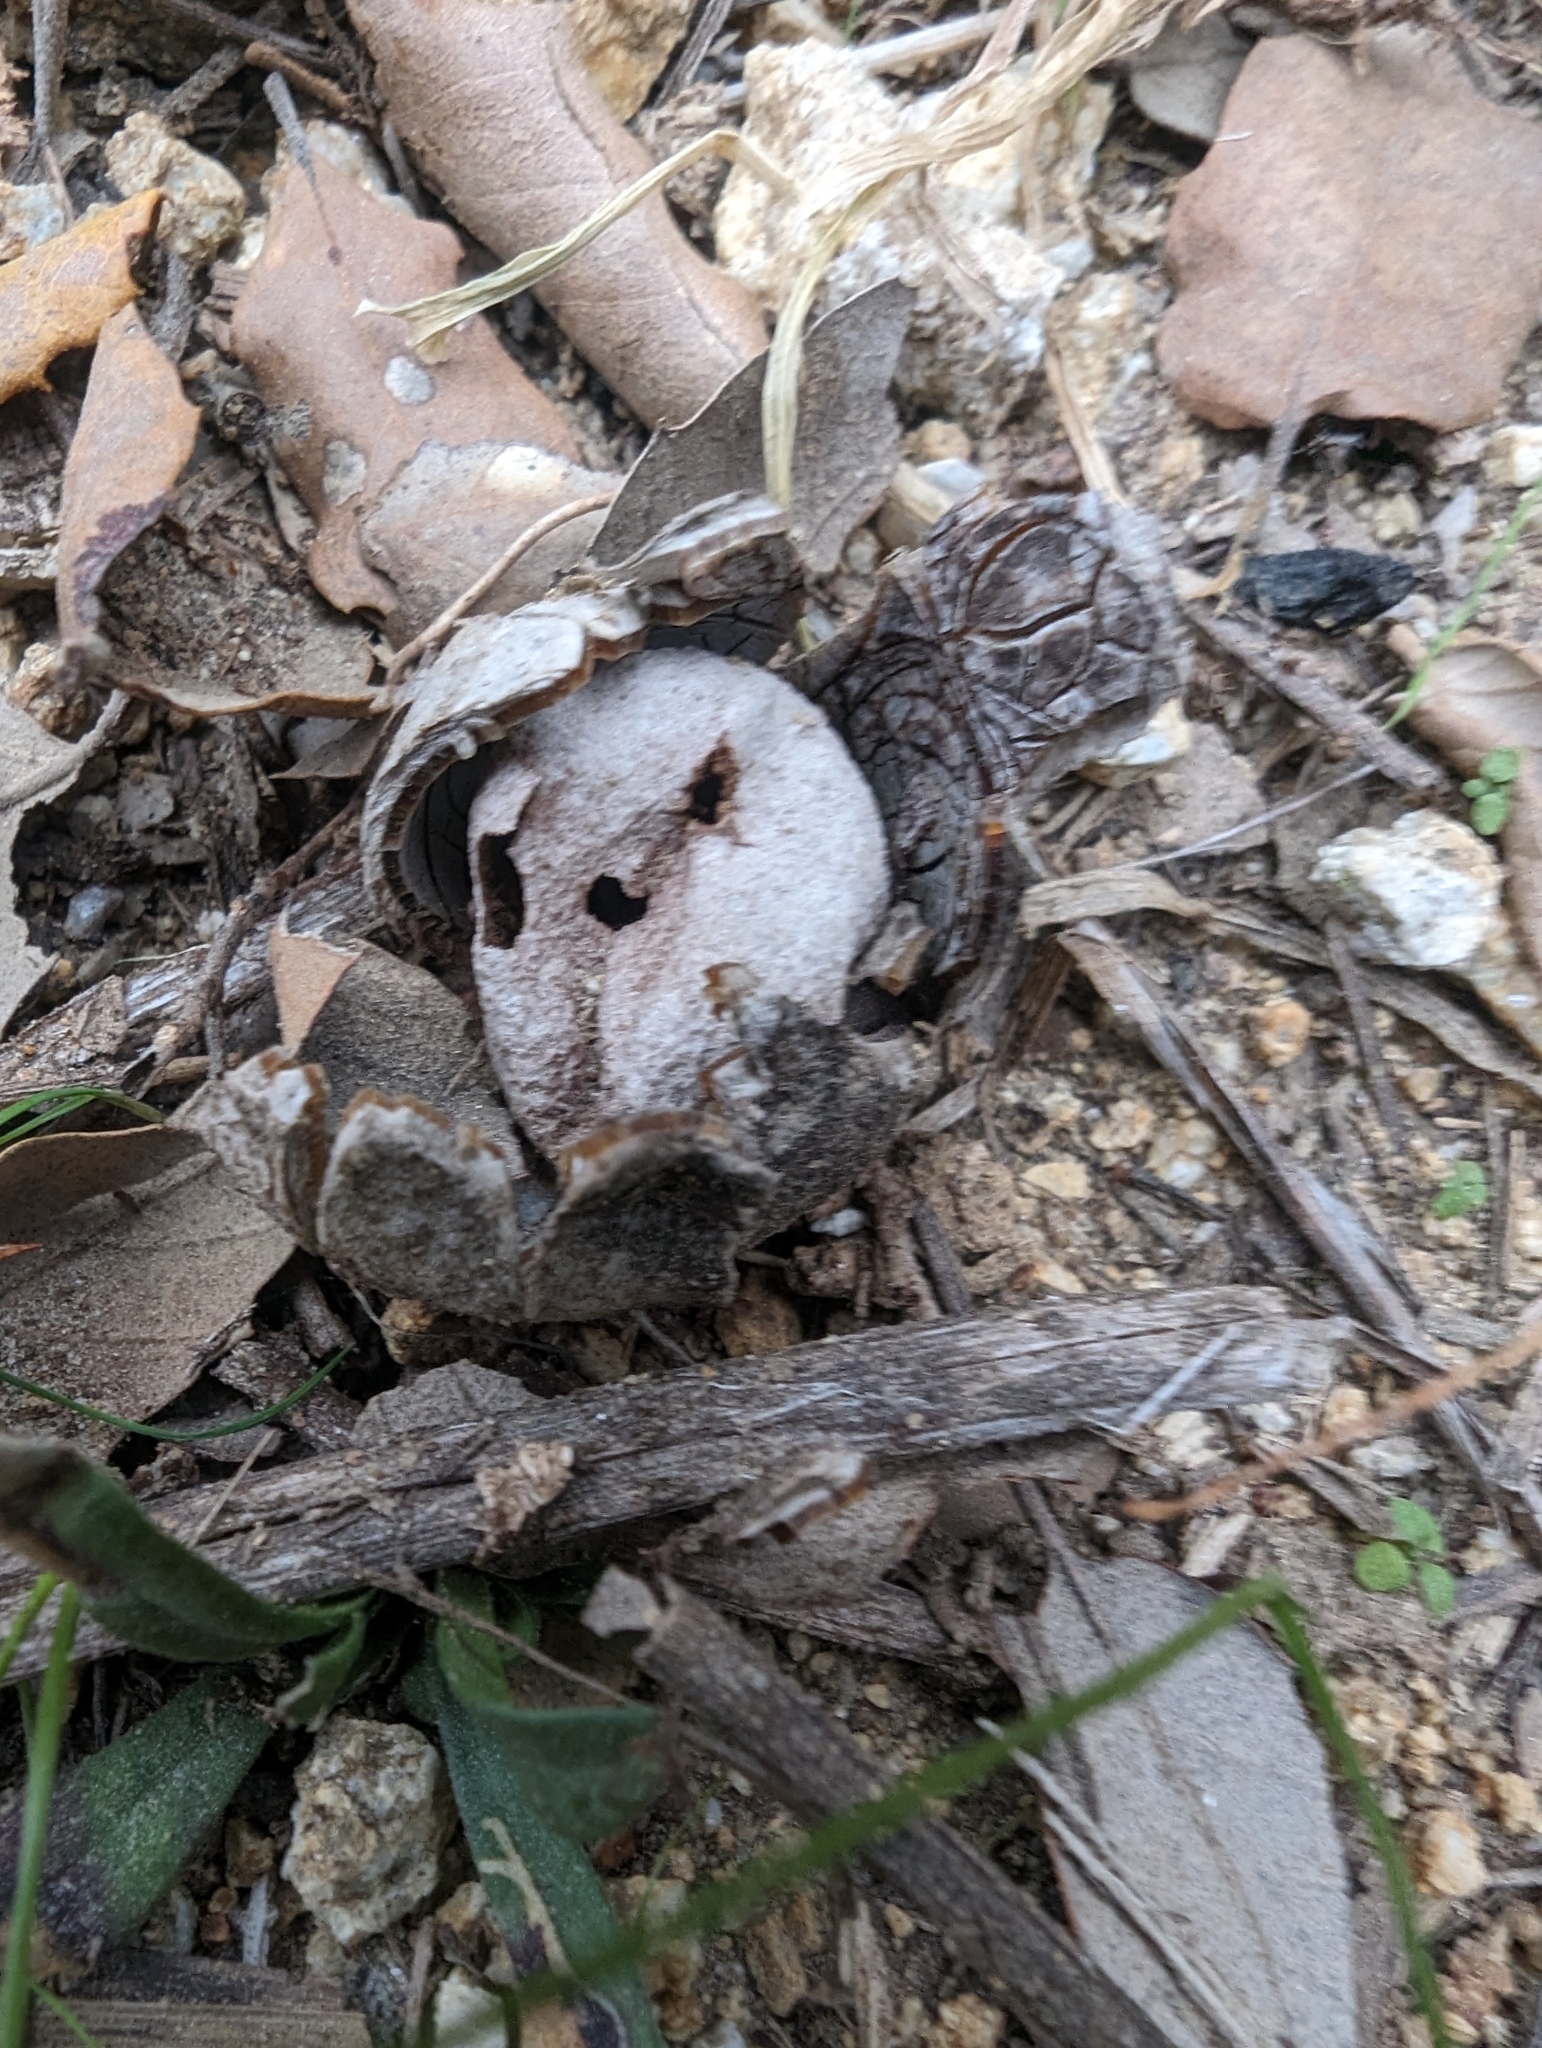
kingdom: Fungi
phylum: Basidiomycota
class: Agaricomycetes
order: Boletales
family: Diplocystidiaceae
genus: Astraeus
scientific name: Astraeus hygrometricus
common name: Barometer earthstar
